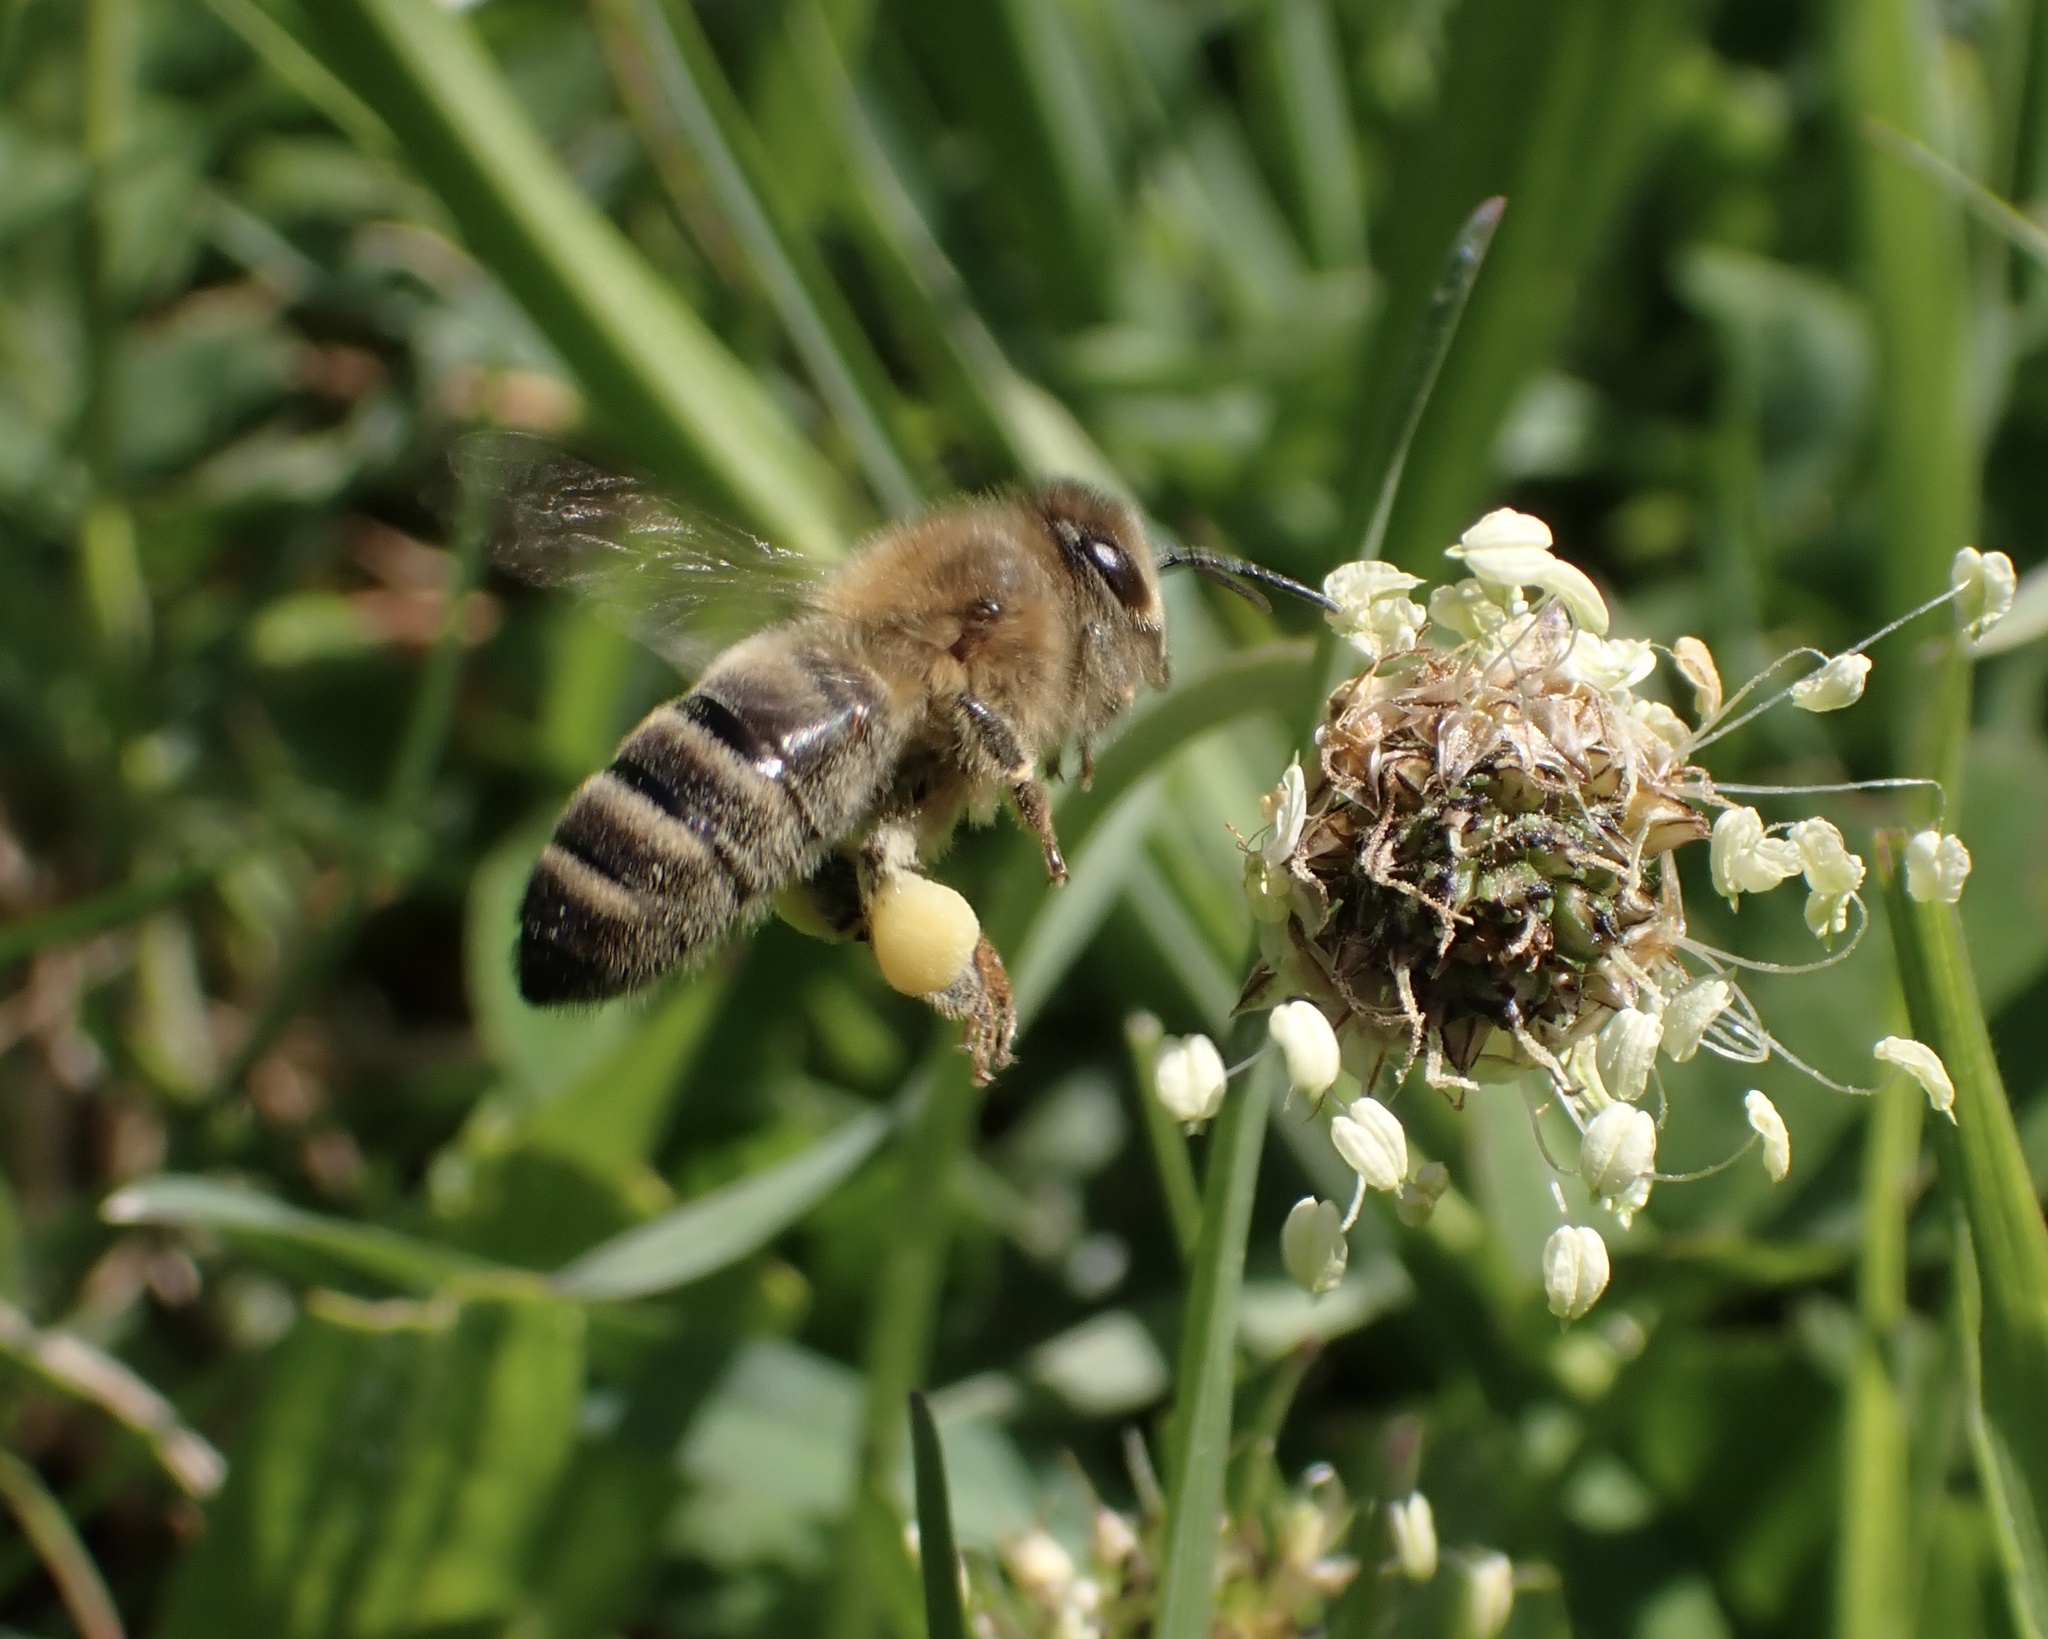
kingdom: Animalia
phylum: Arthropoda
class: Insecta
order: Hymenoptera
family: Apidae
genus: Apis
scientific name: Apis mellifera
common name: Honey bee
